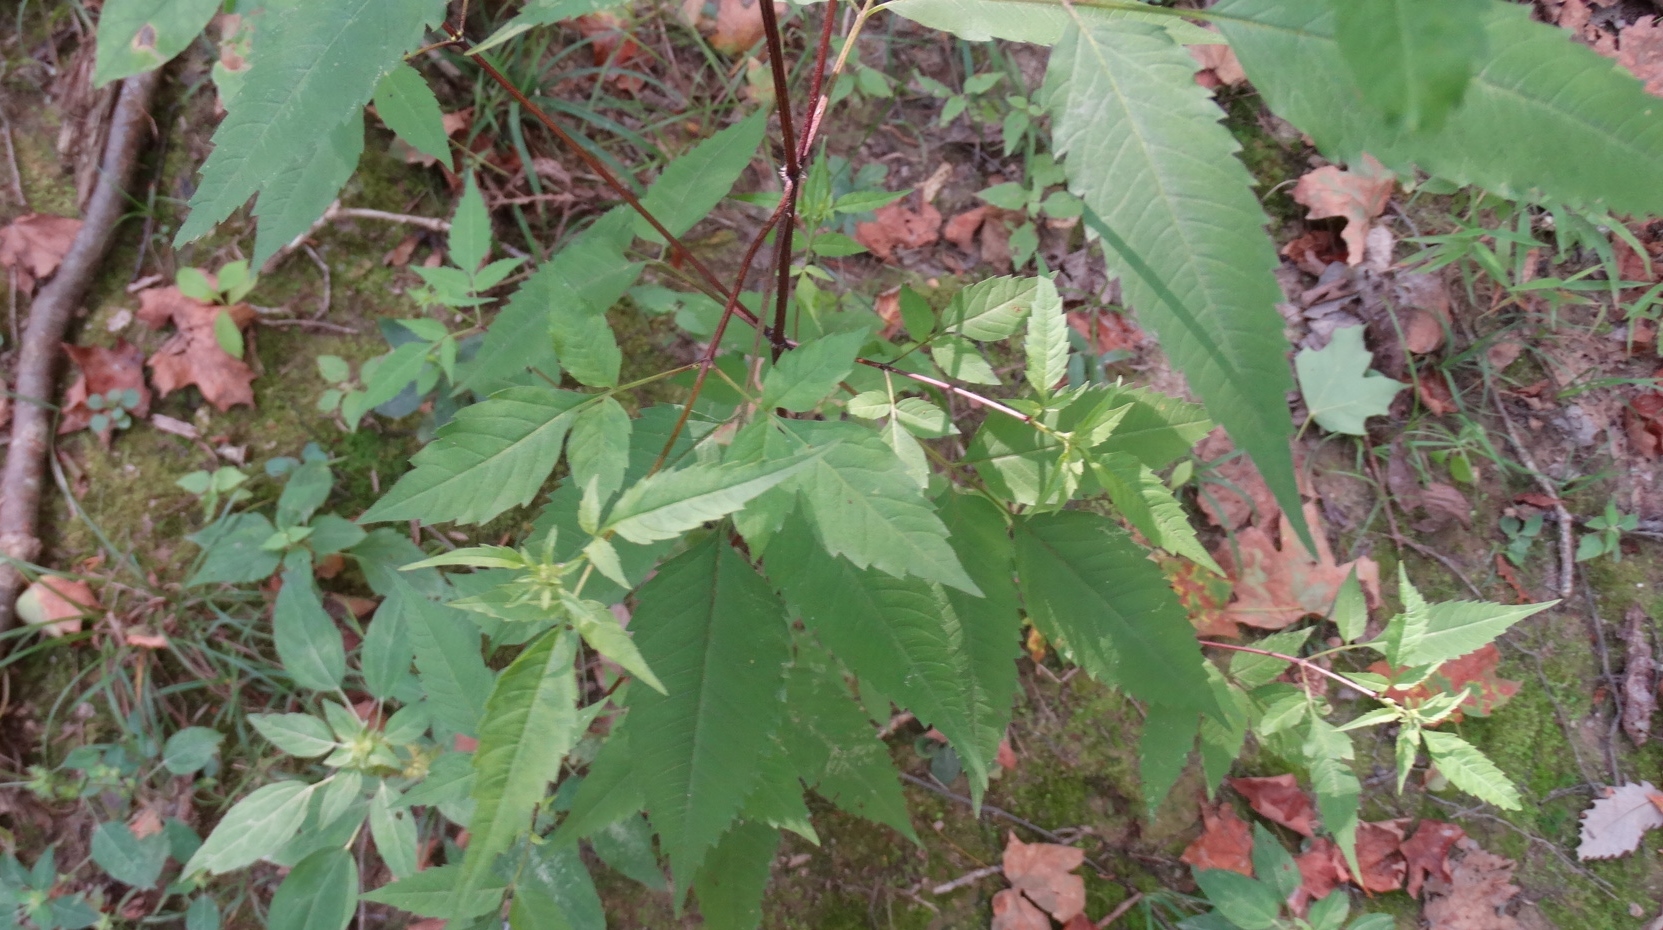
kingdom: Plantae
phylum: Tracheophyta
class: Magnoliopsida
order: Asterales
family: Asteraceae
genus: Bidens
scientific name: Bidens frondosa
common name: Beggarticks
